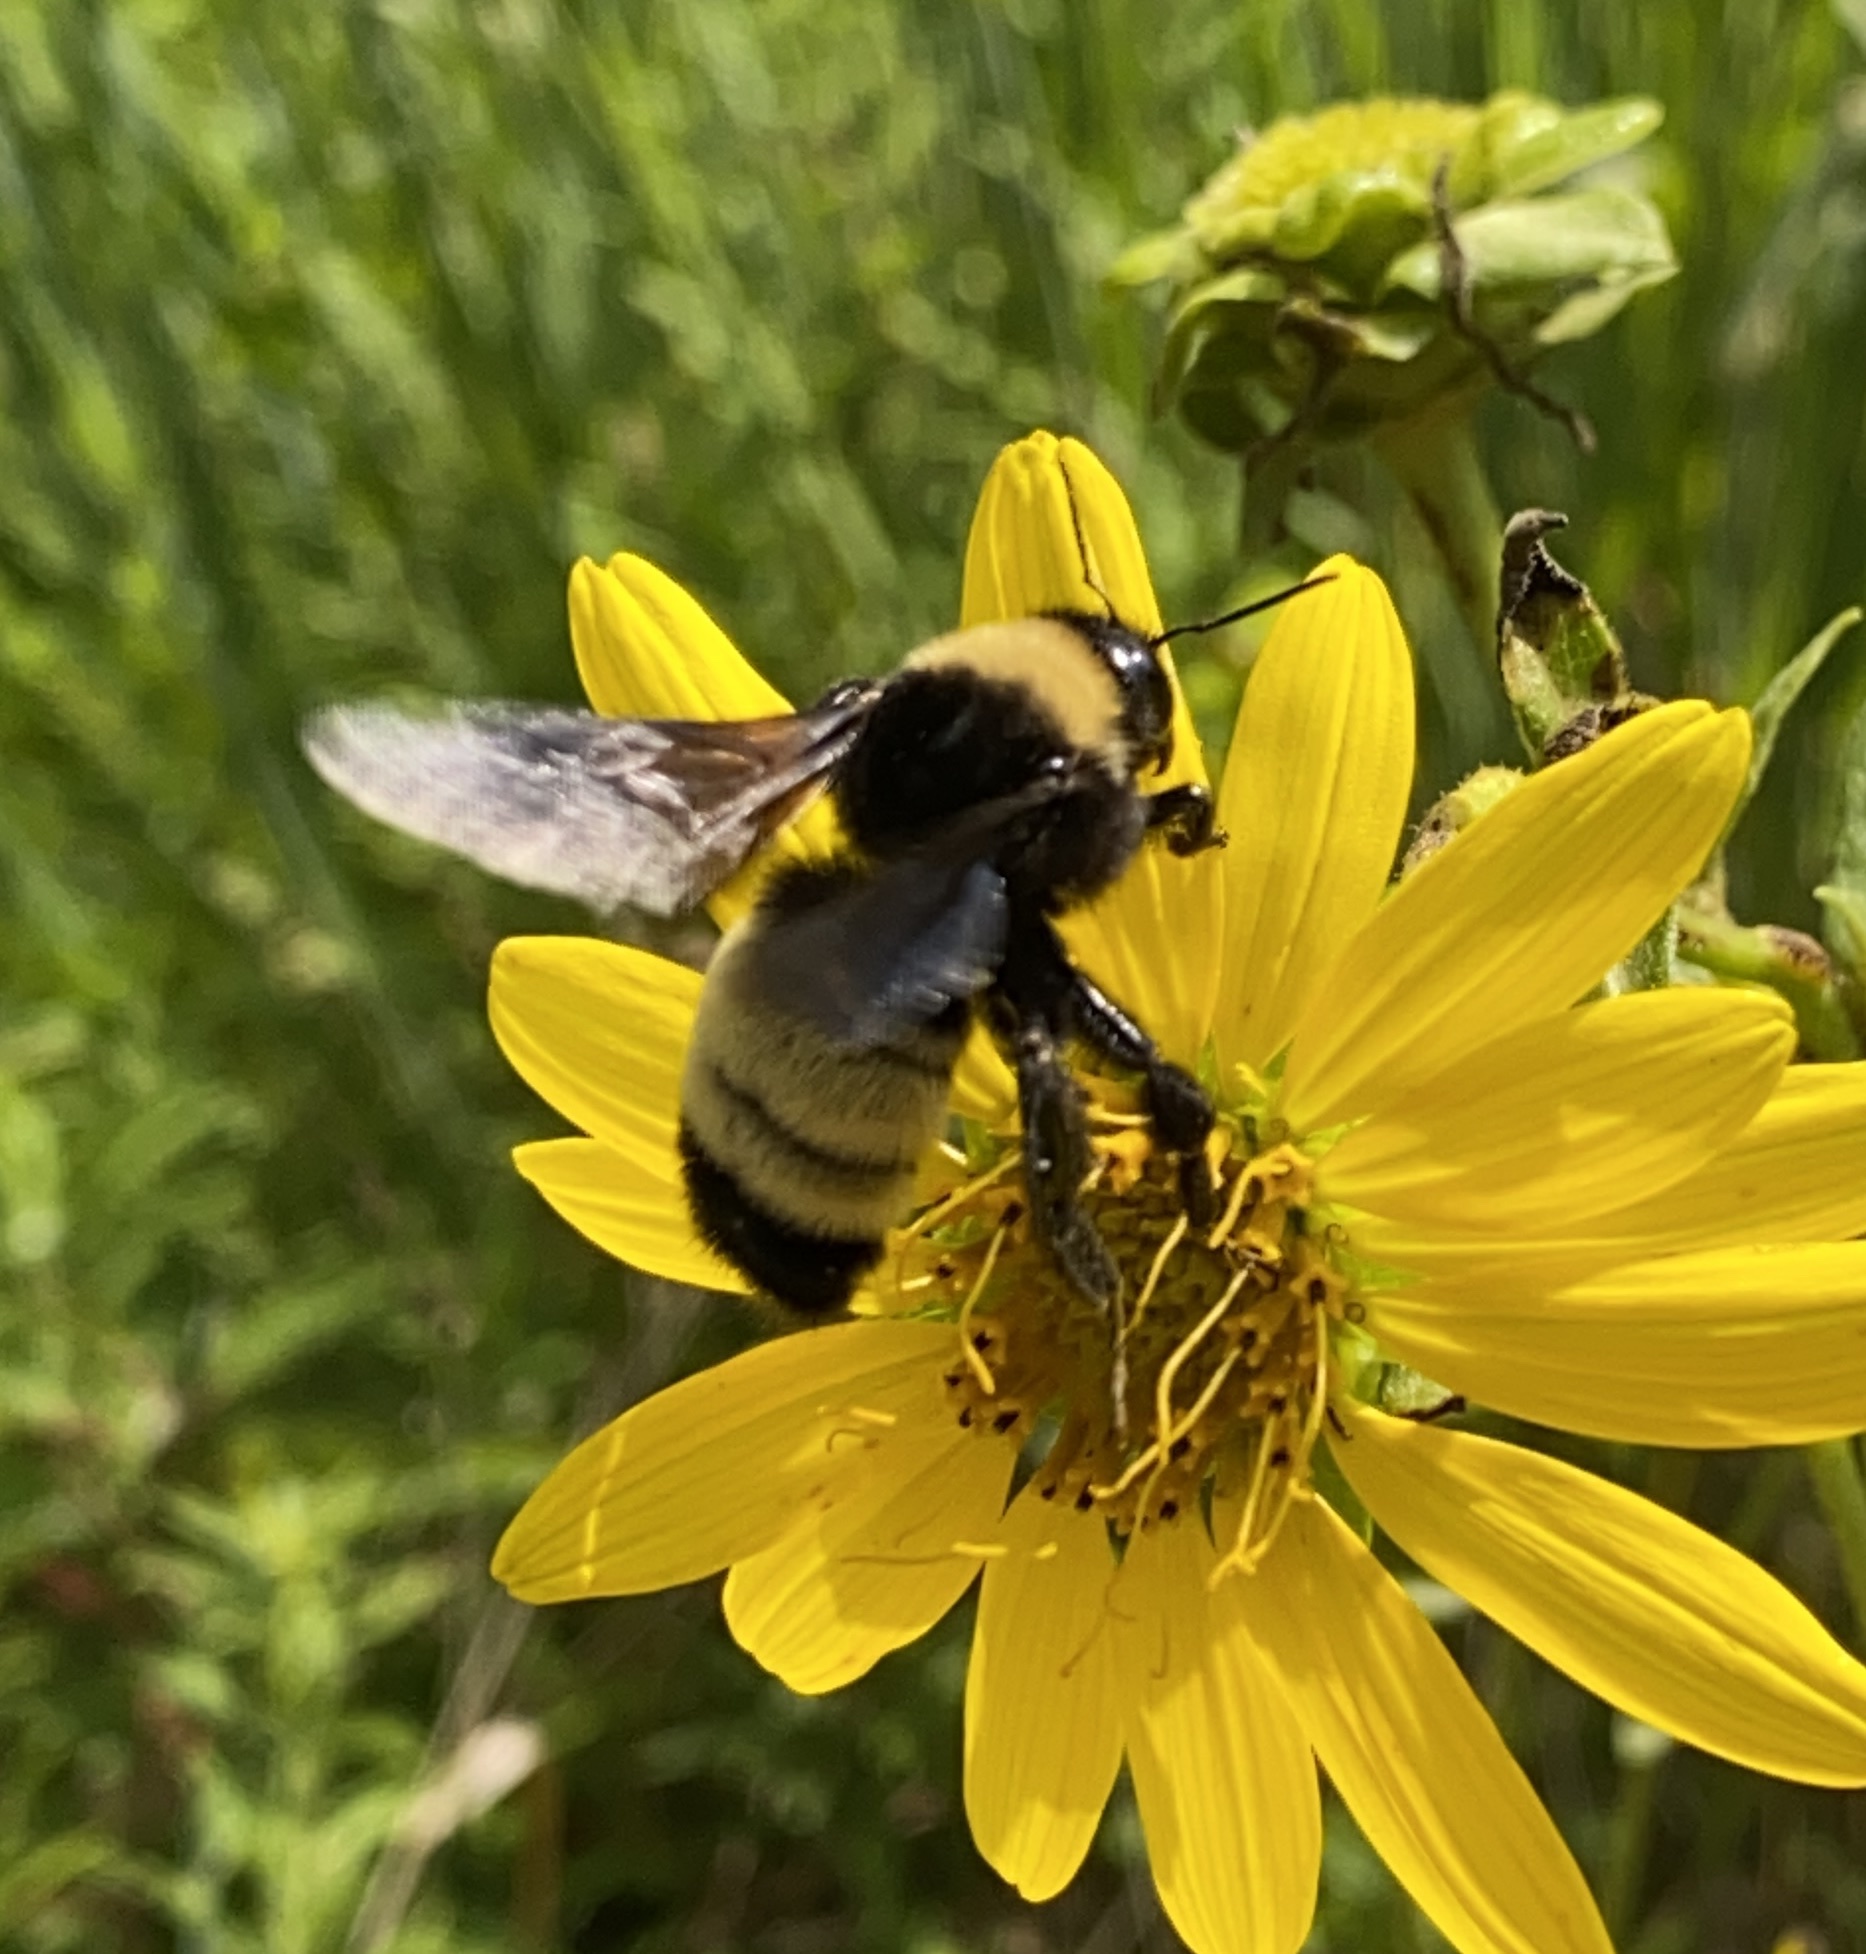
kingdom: Animalia
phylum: Arthropoda
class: Insecta
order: Hymenoptera
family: Apidae
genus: Bombus
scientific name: Bombus pensylvanicus
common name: Bumble bee
